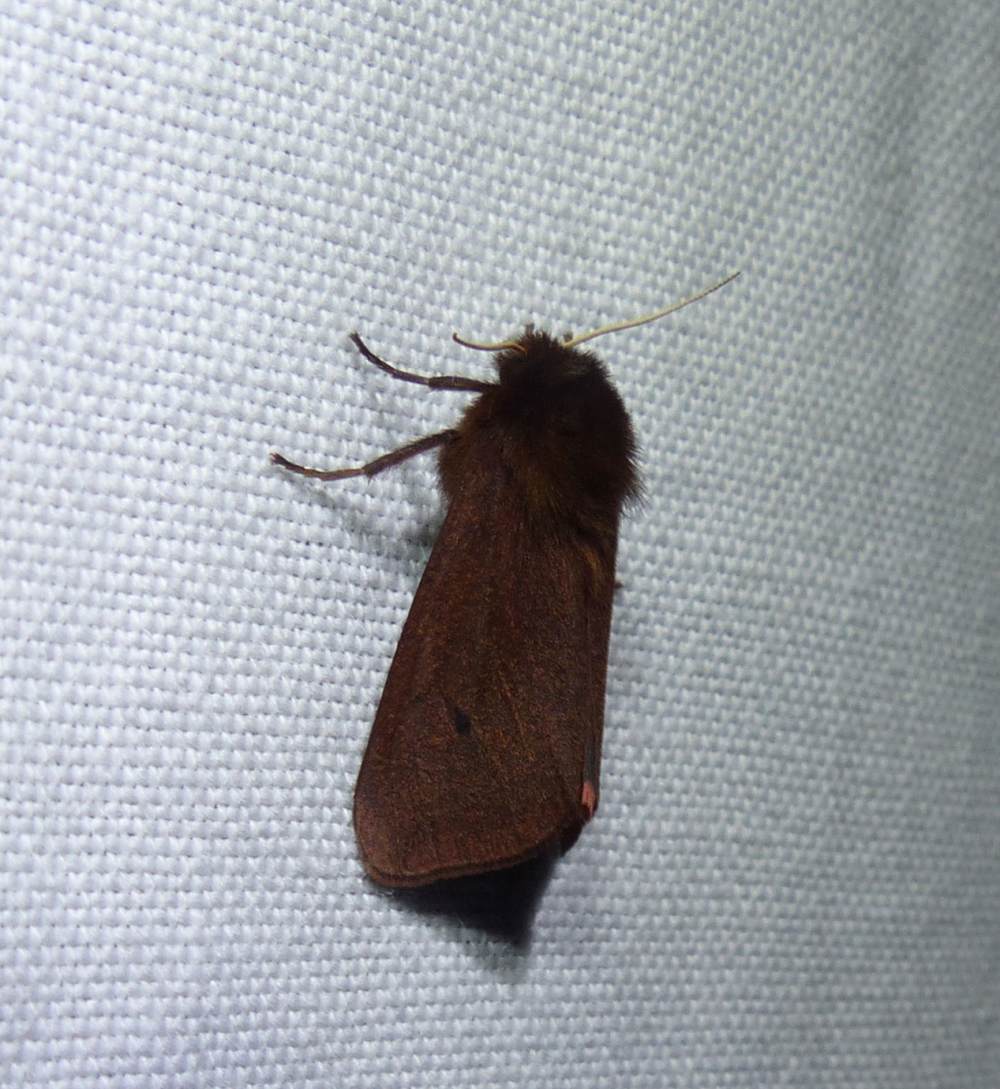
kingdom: Animalia
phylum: Arthropoda
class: Insecta
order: Lepidoptera
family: Erebidae
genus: Phragmatobia
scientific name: Phragmatobia fuliginosa
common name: Ruby tiger
